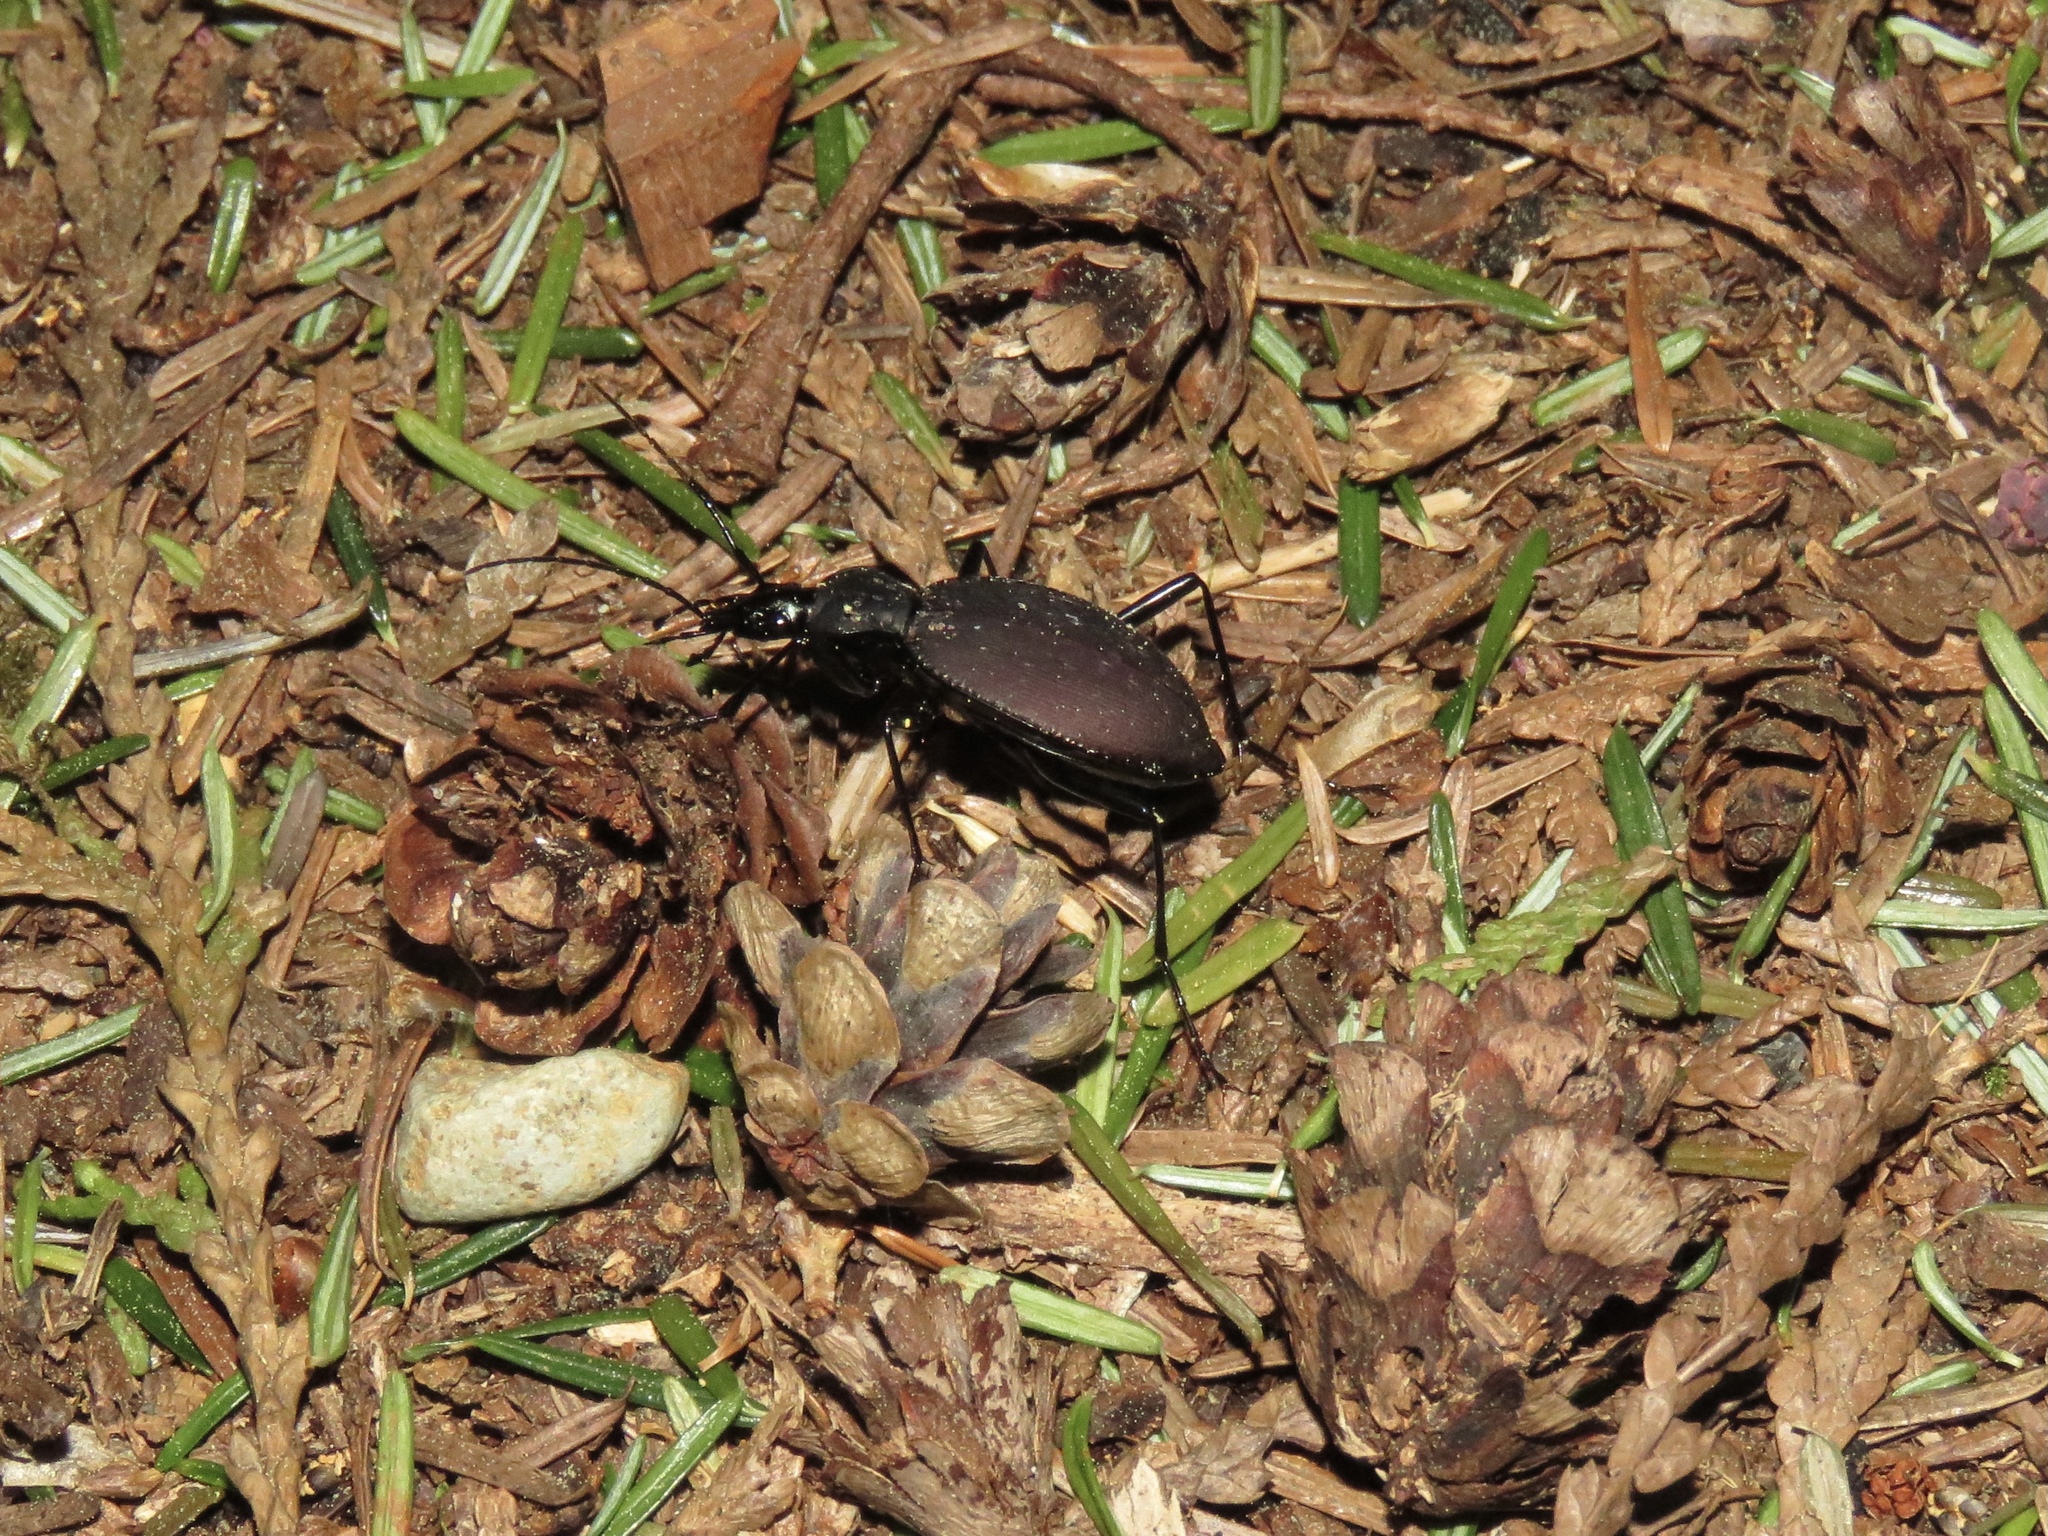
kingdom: Animalia
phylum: Arthropoda
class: Insecta
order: Coleoptera
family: Carabidae
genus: Scaphinotus
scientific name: Scaphinotus angusticollis
